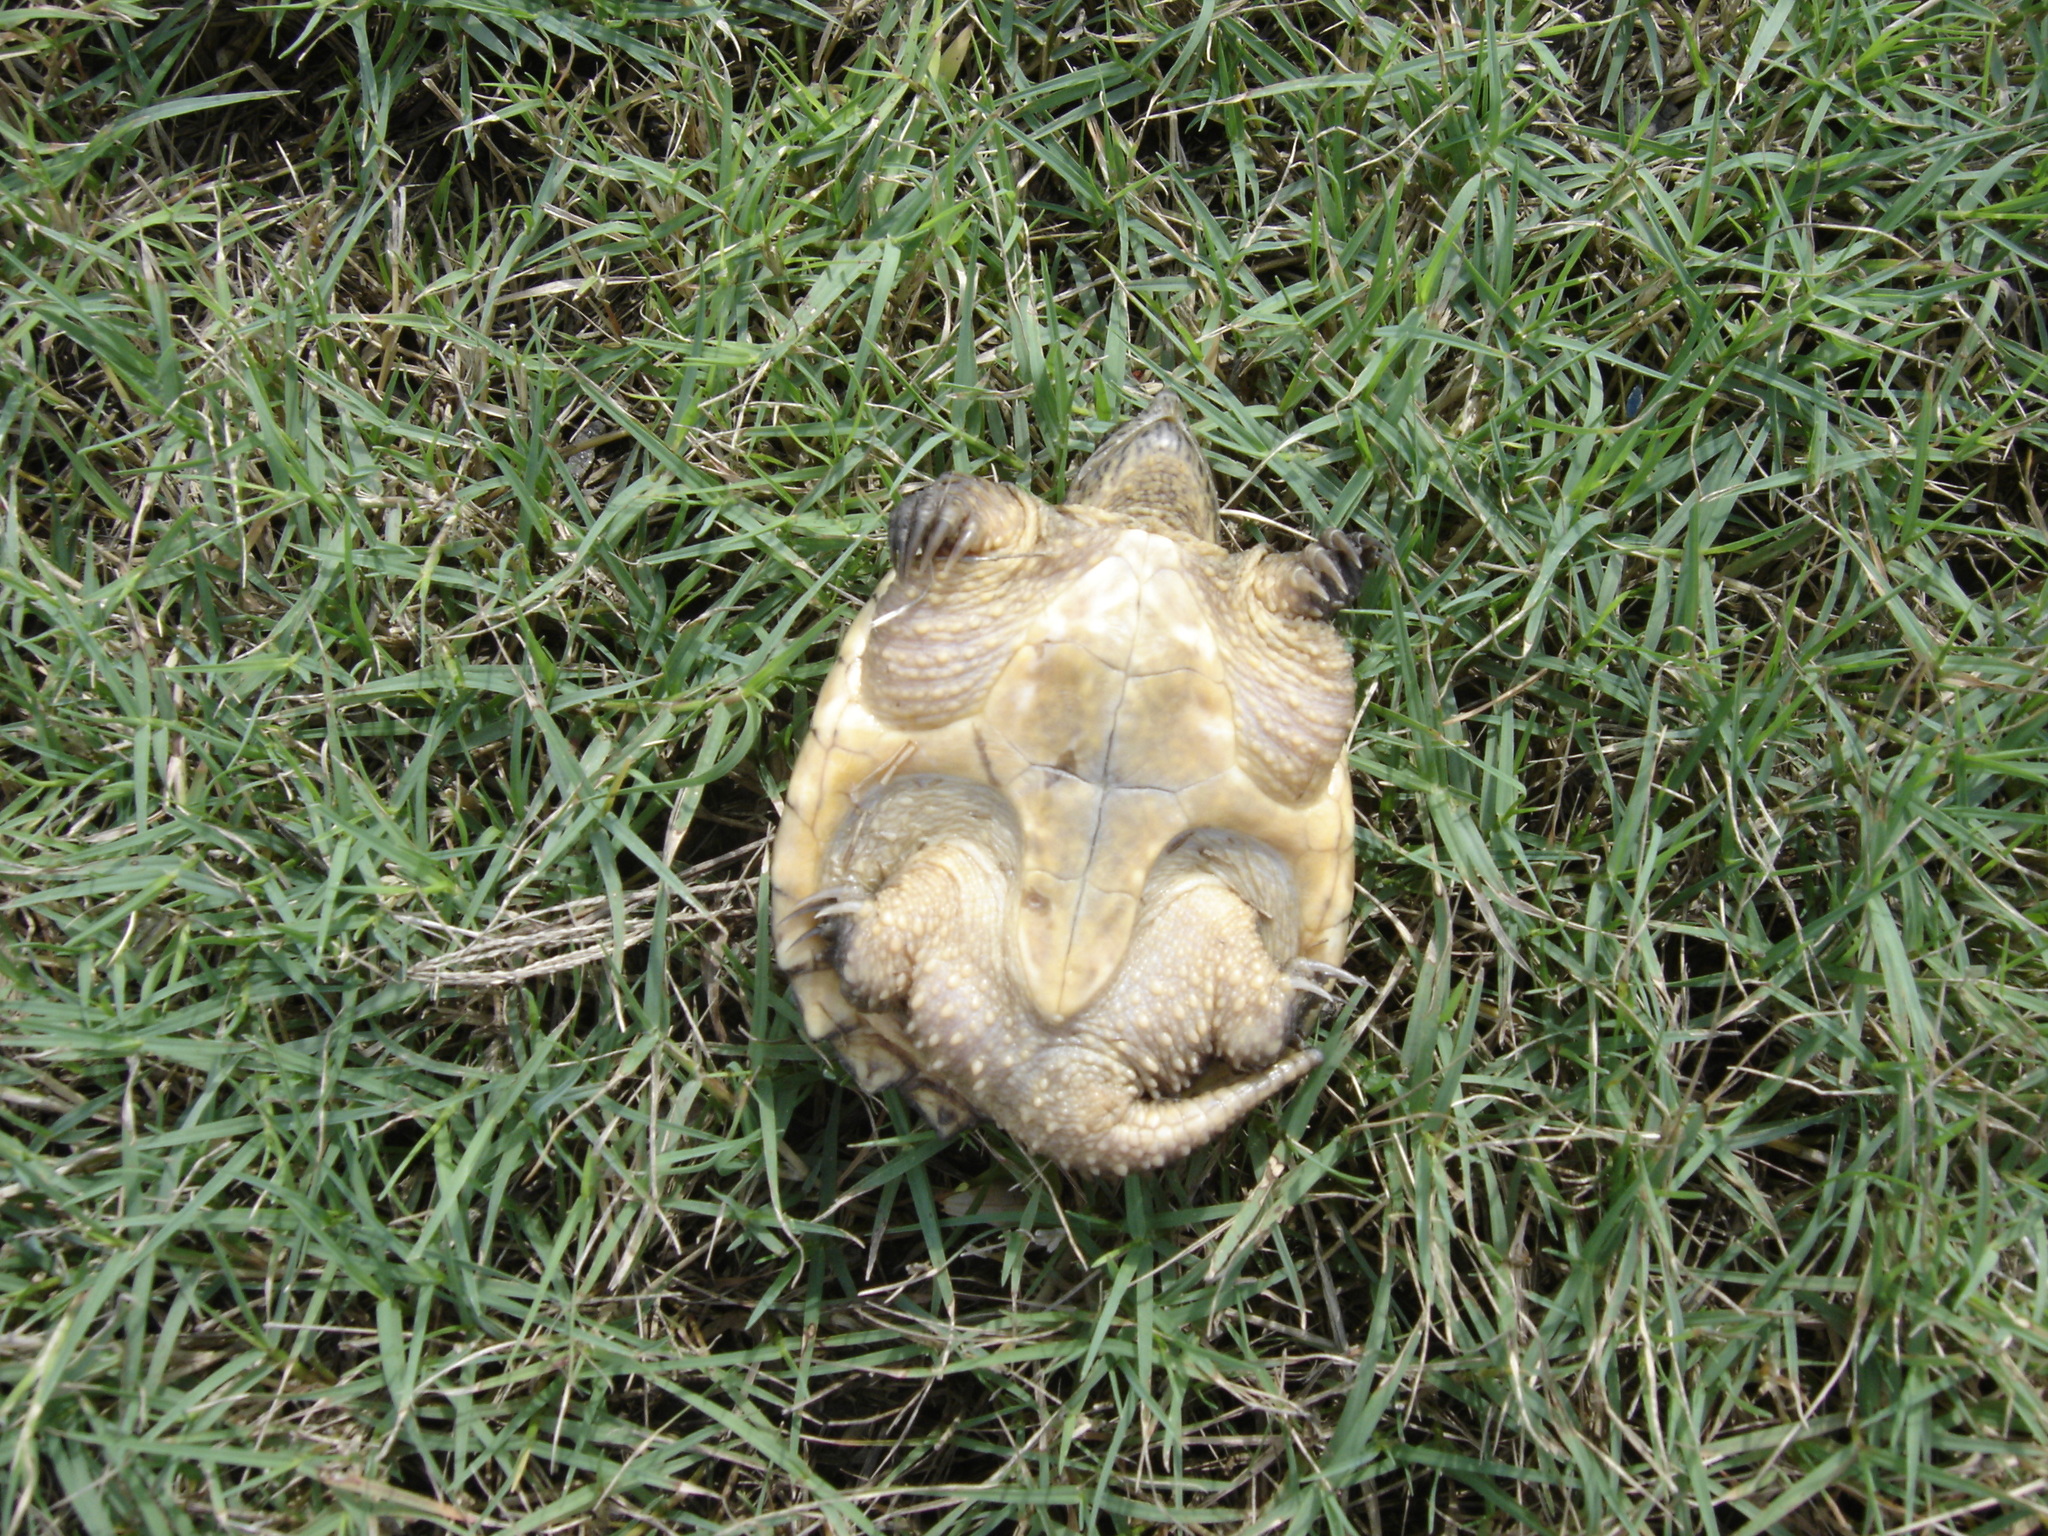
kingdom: Animalia
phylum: Chordata
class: Testudines
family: Chelydridae
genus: Chelydra
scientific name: Chelydra serpentina
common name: Common snapping turtle
